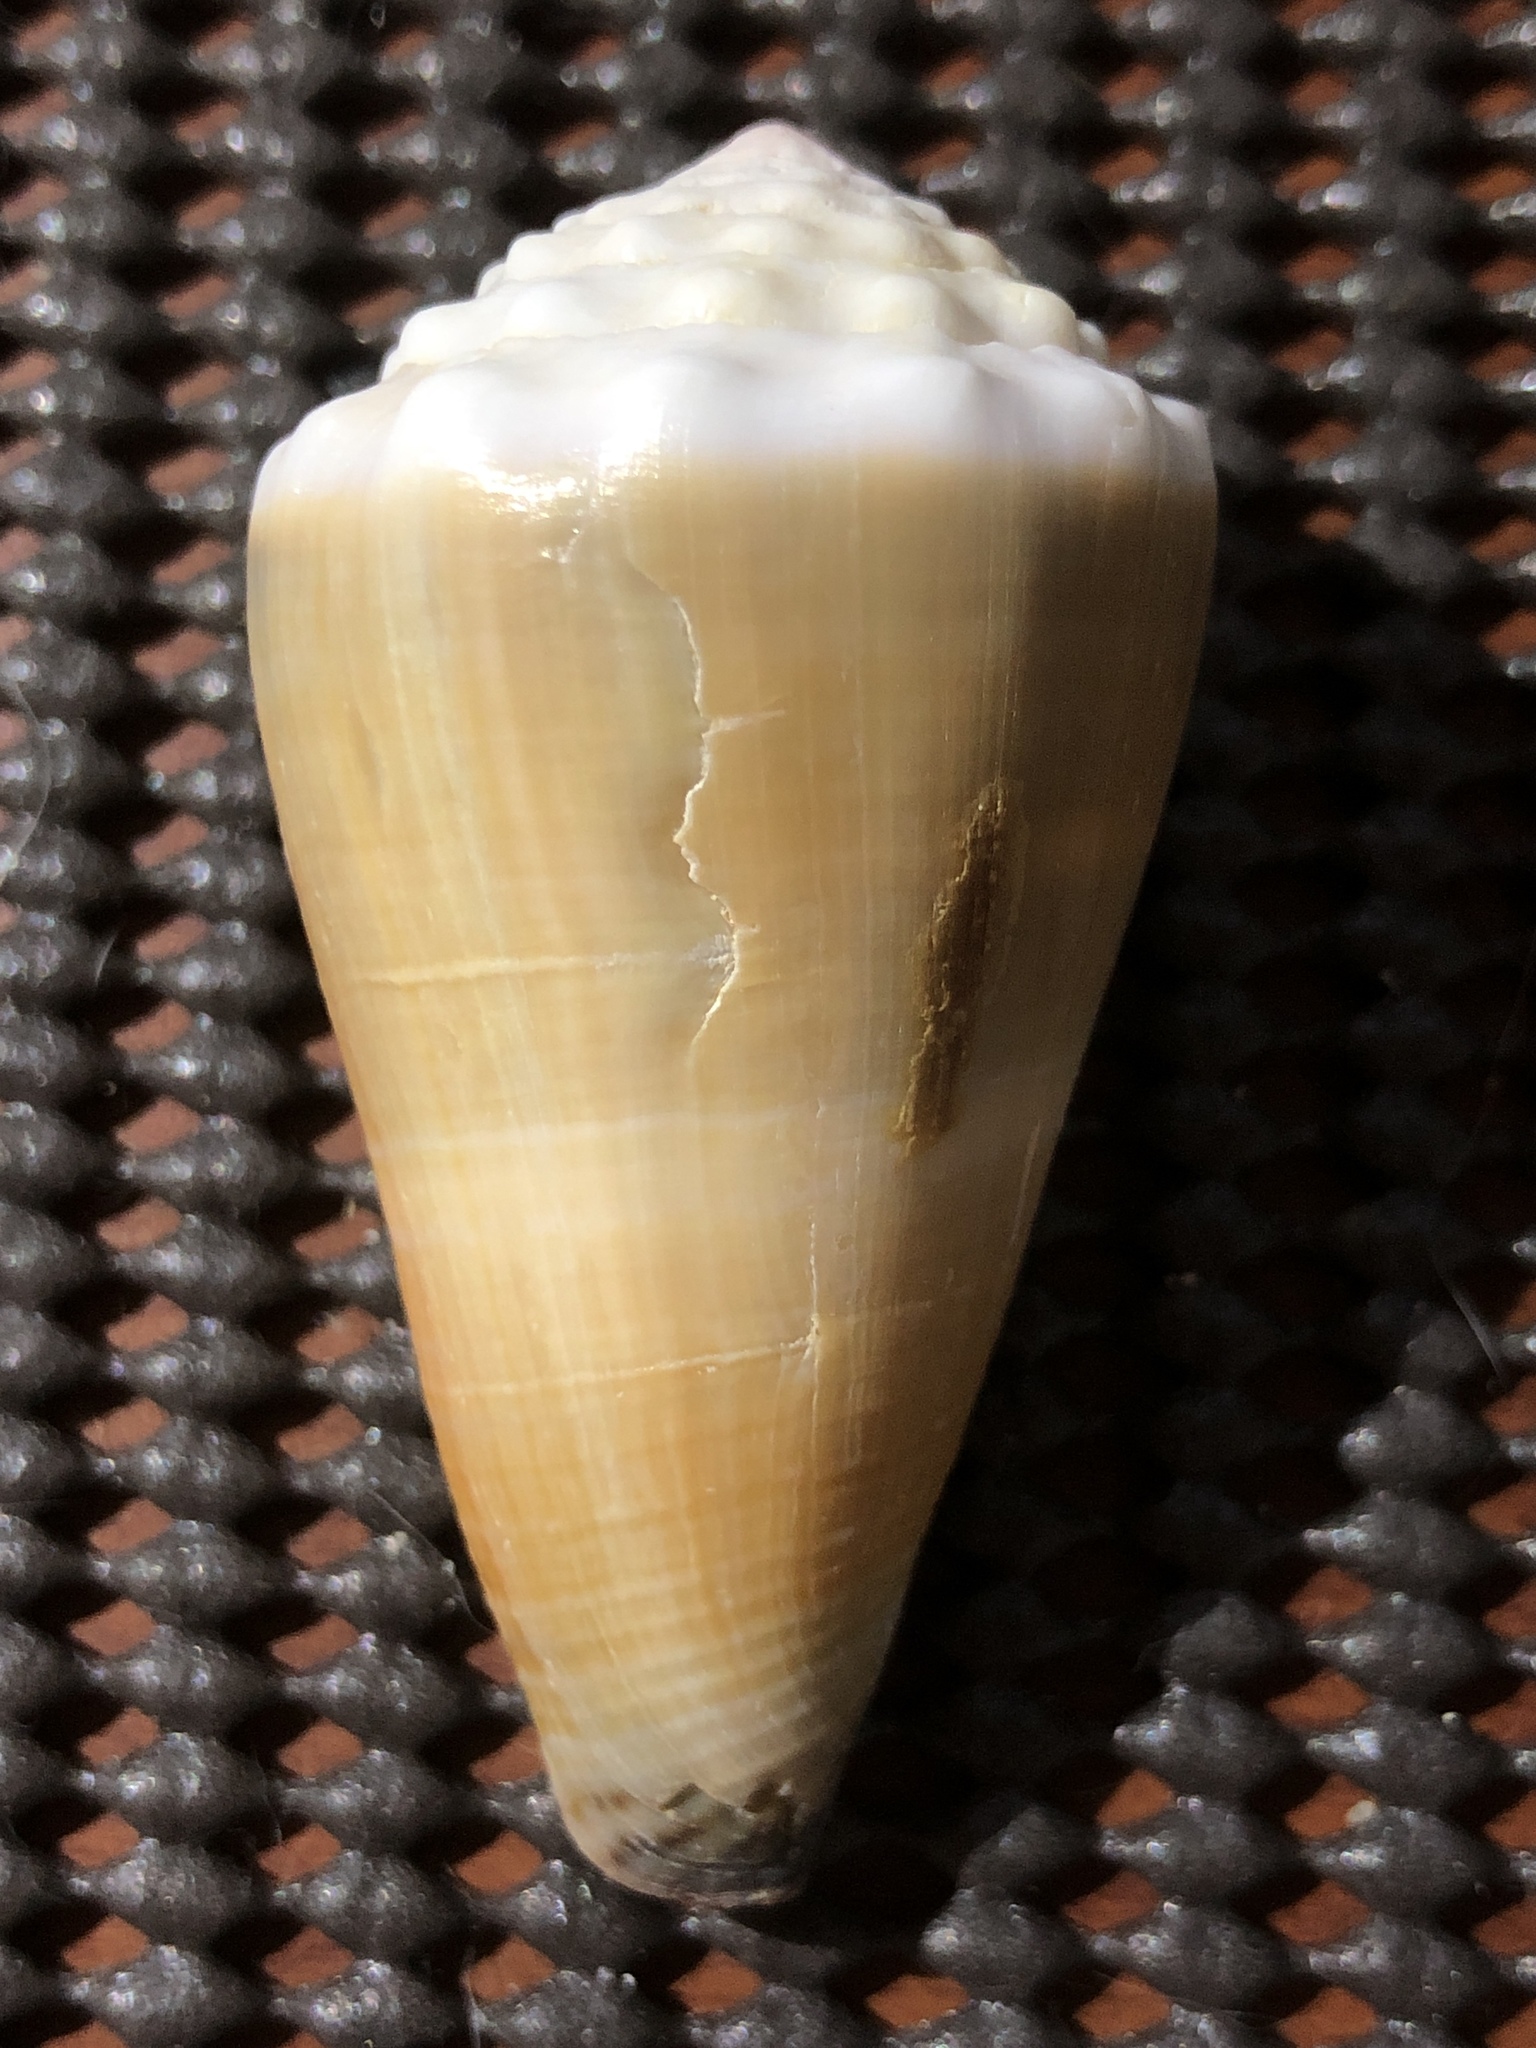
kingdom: Animalia
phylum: Mollusca
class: Gastropoda
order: Neogastropoda
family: Conidae
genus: Conus
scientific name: Conus lividus
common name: Livid cone
